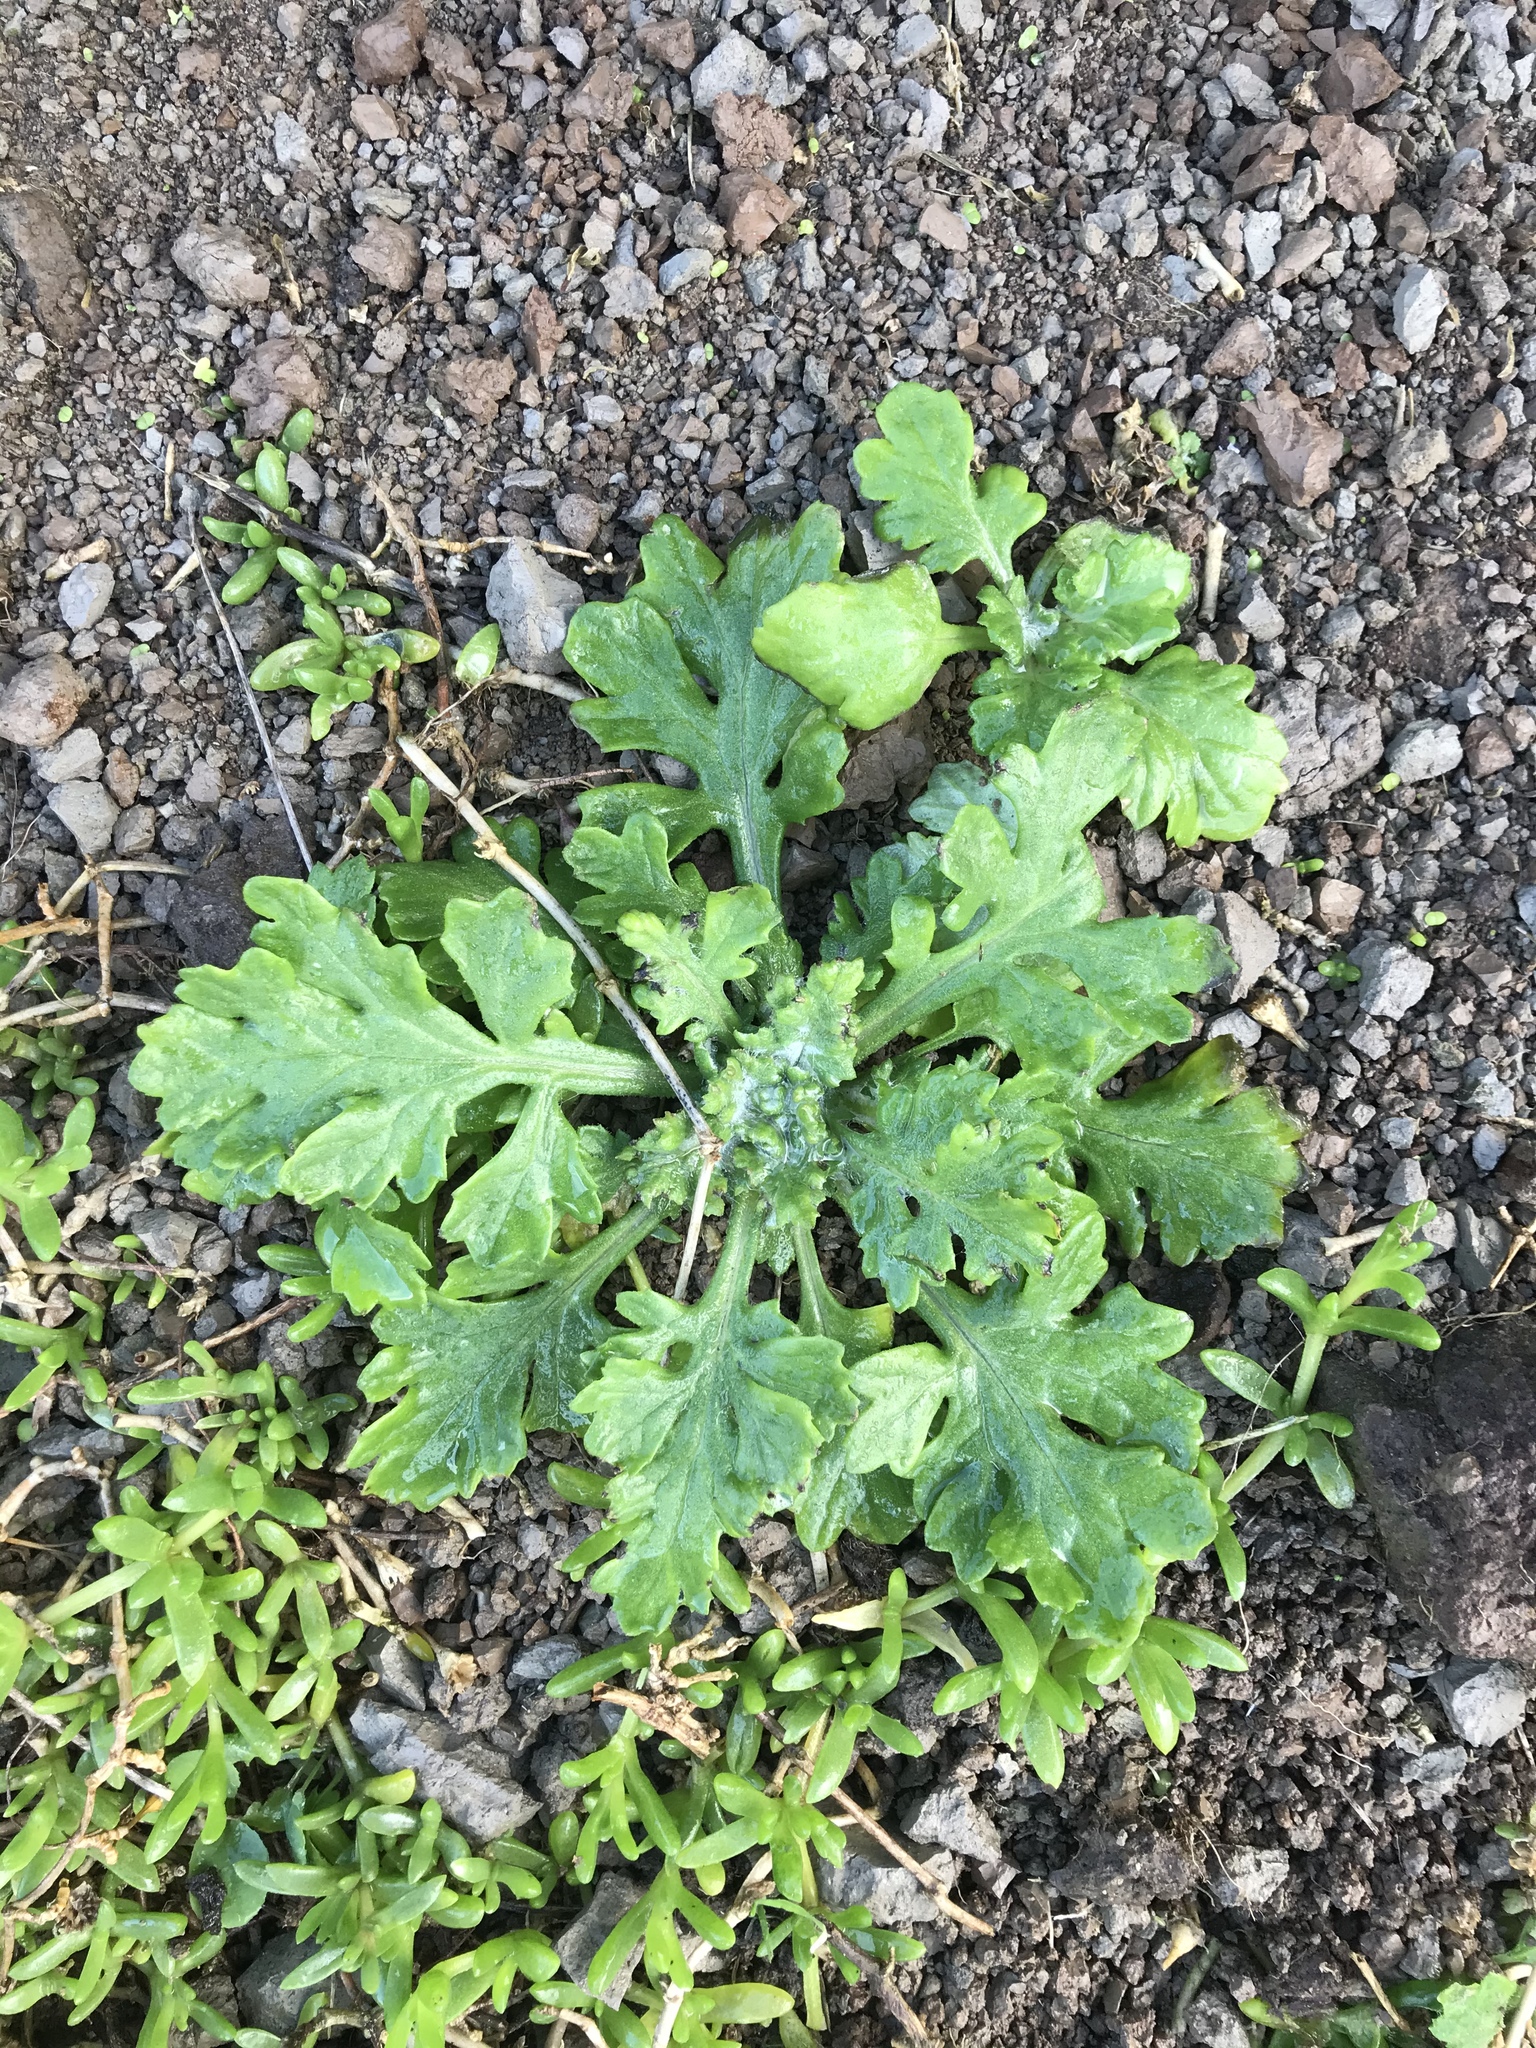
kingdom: Plantae
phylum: Tracheophyta
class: Magnoliopsida
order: Asterales
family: Asteraceae
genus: Senecio
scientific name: Senecio radiolatus
